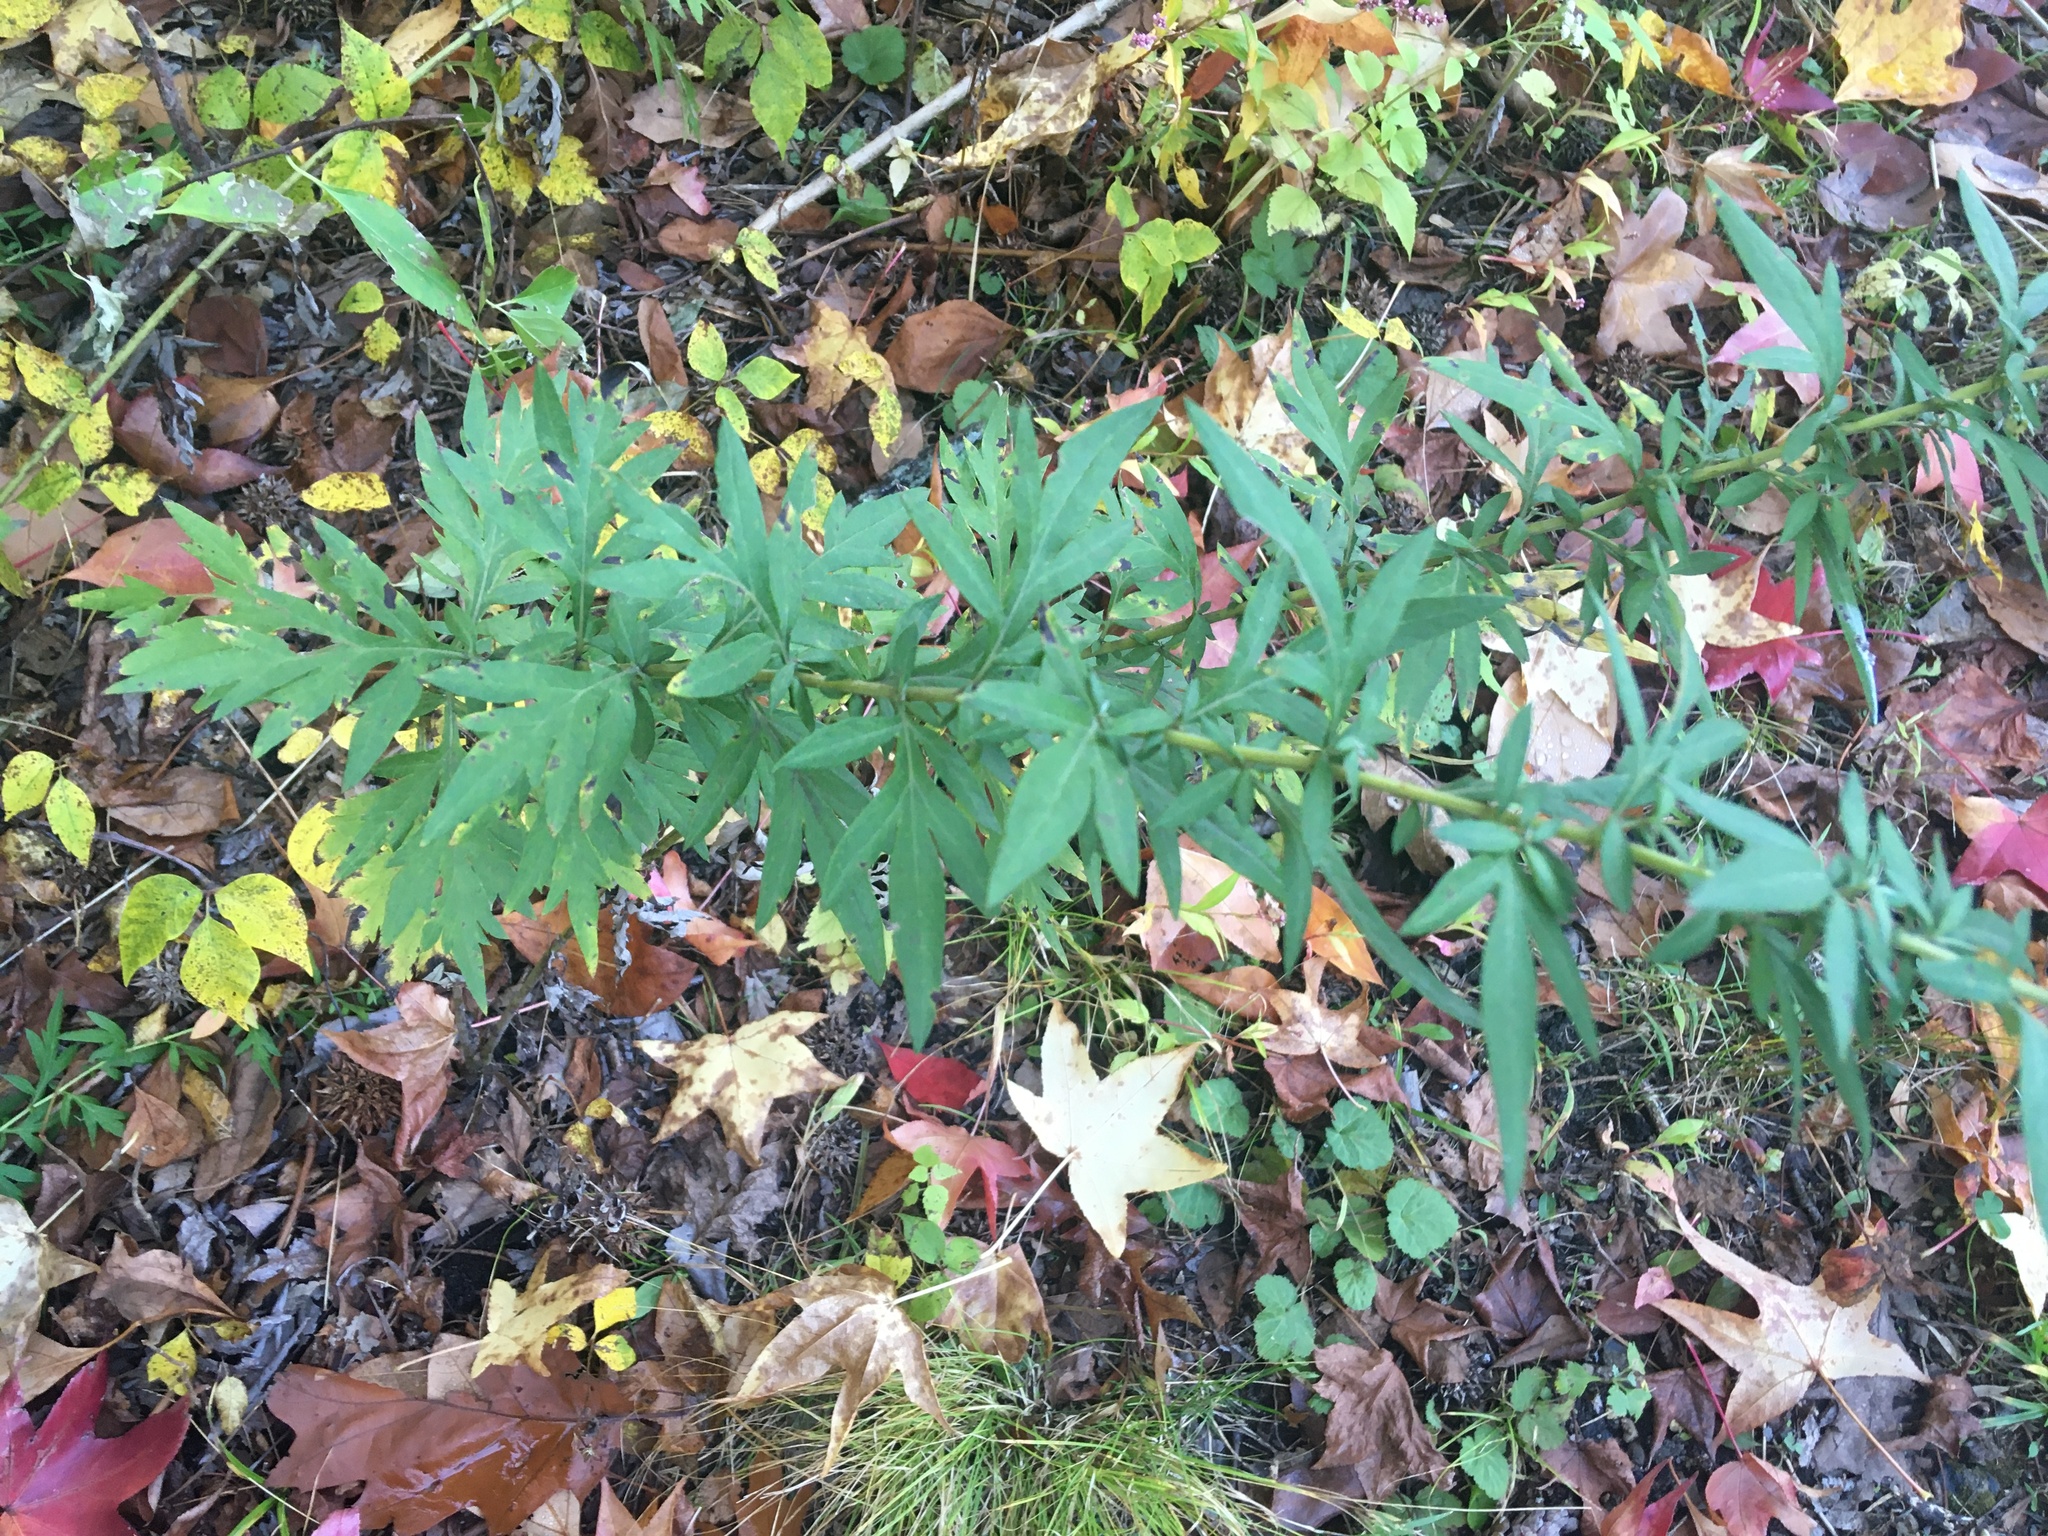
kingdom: Plantae
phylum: Tracheophyta
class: Magnoliopsida
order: Asterales
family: Asteraceae
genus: Artemisia
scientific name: Artemisia vulgaris
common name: Mugwort
